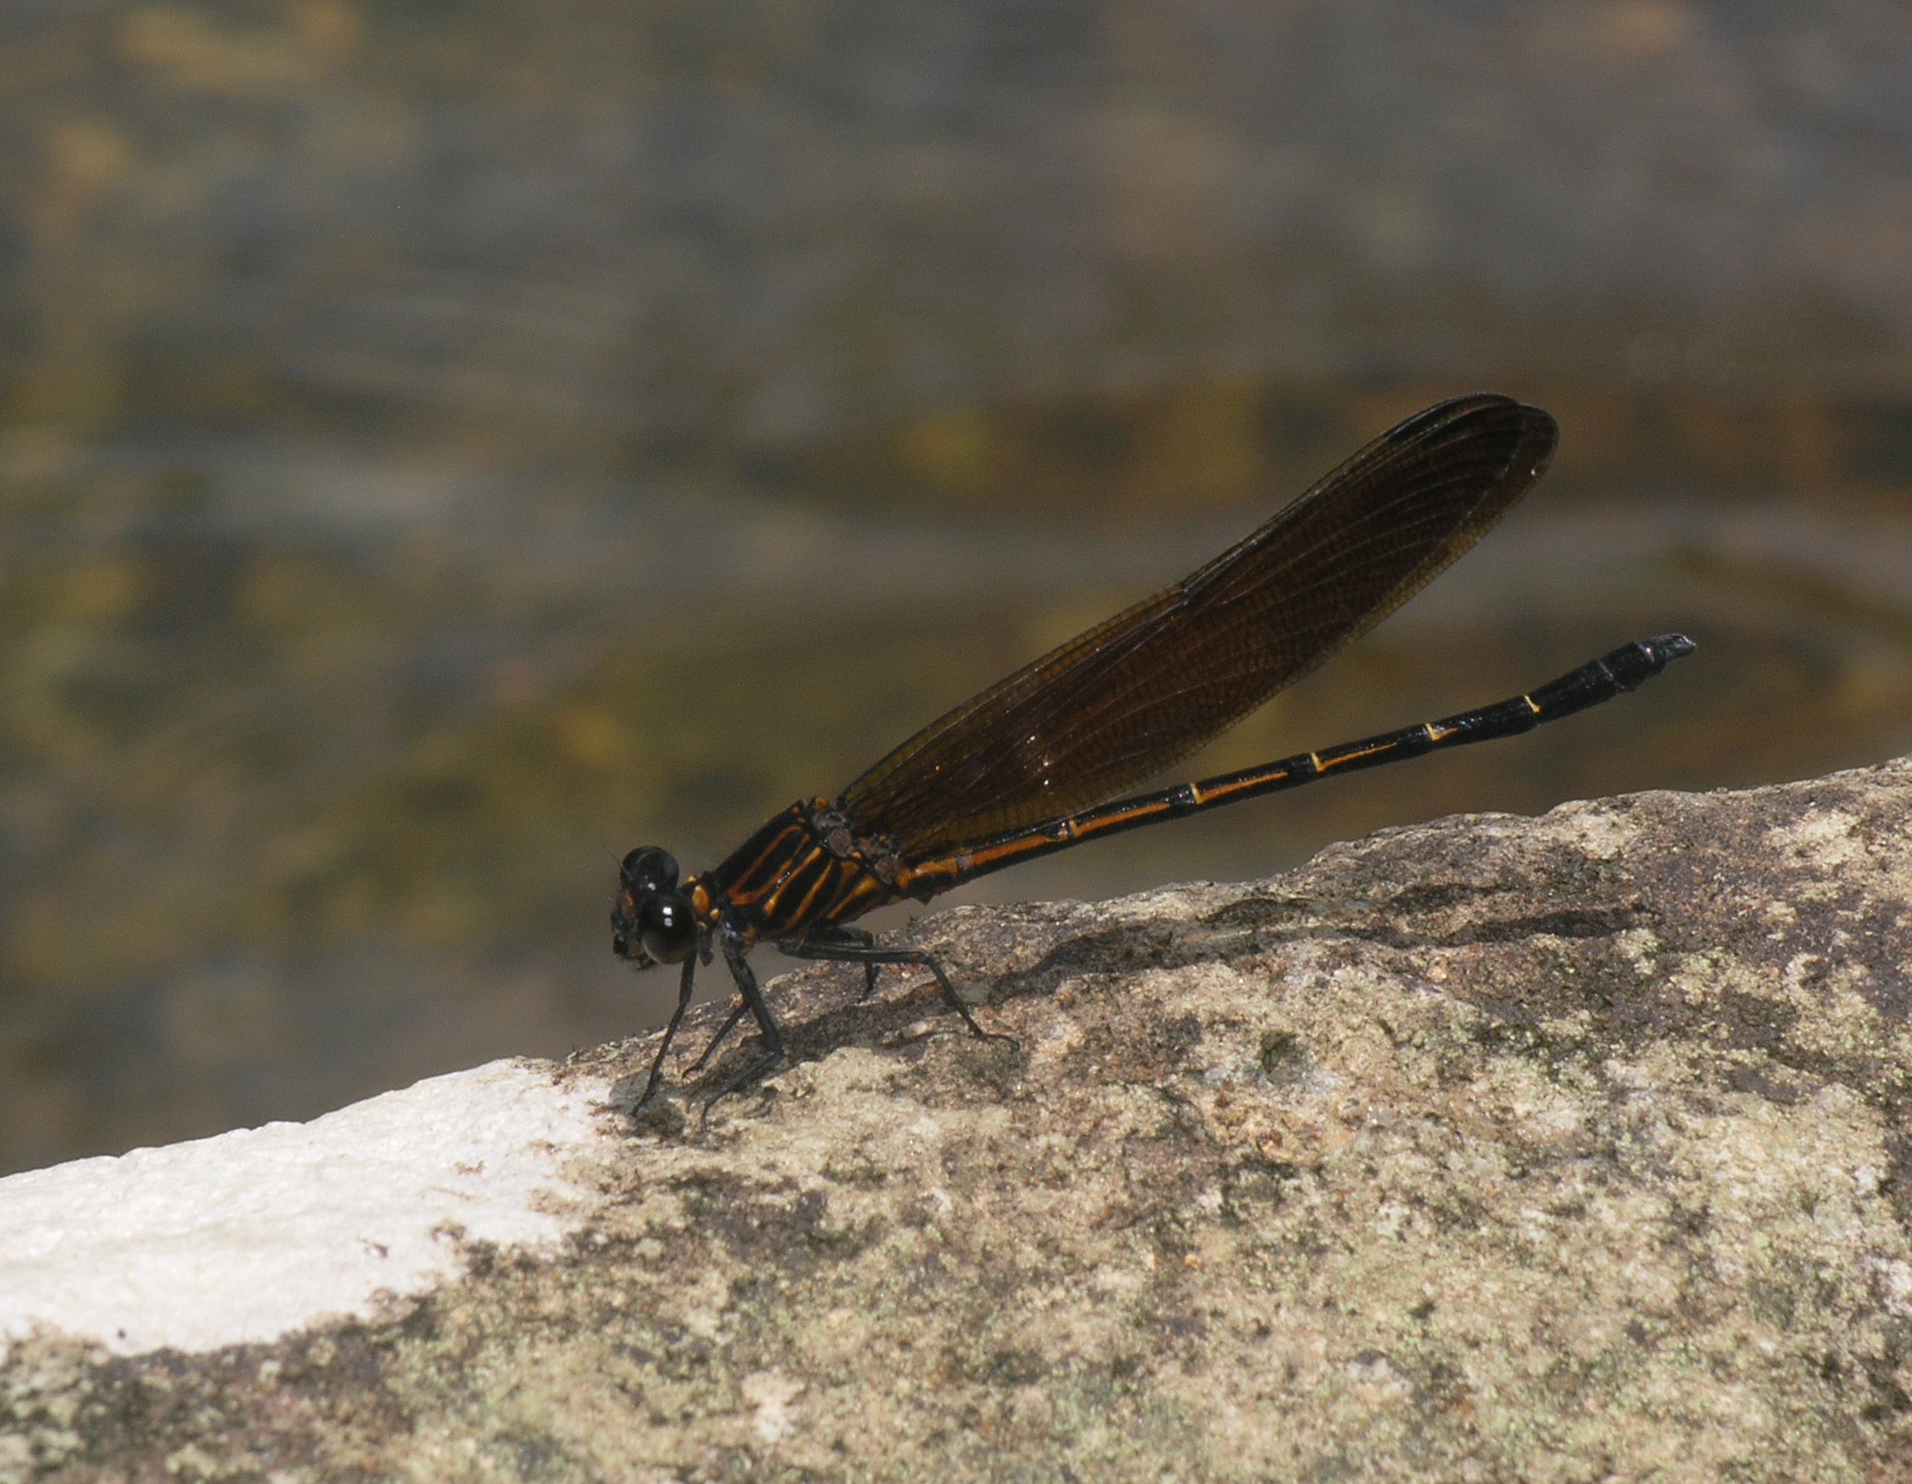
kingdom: Animalia
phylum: Arthropoda
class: Insecta
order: Odonata
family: Euphaeidae
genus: Dysphaea
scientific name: Dysphaea gloriosa
